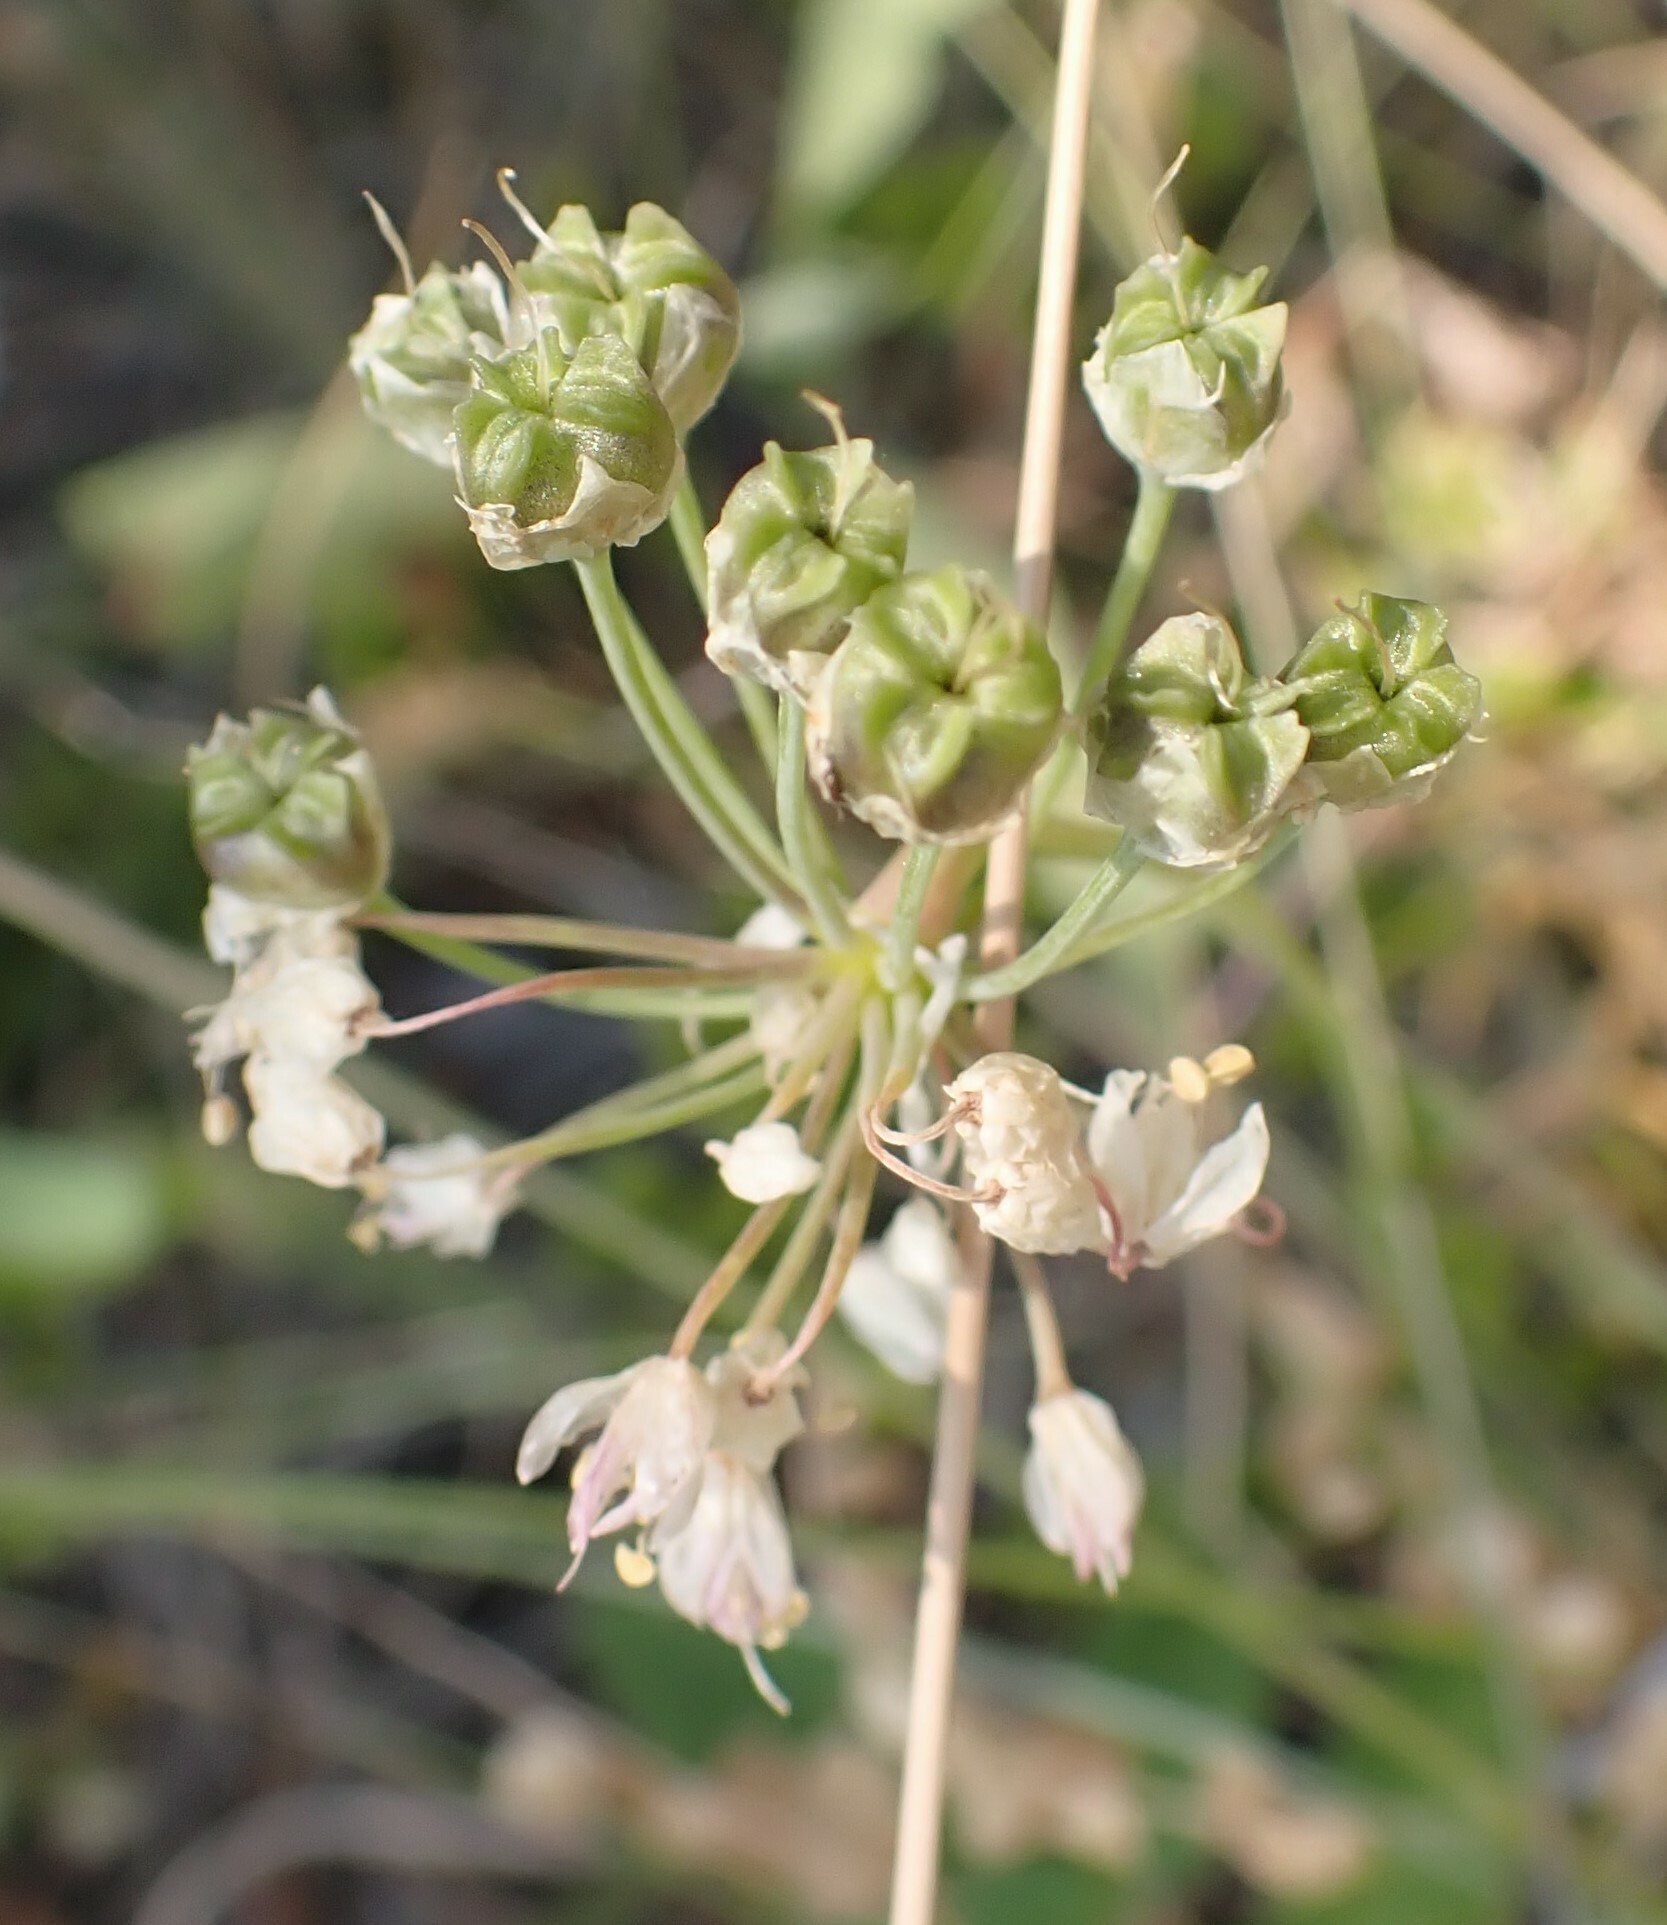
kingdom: Plantae
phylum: Tracheophyta
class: Liliopsida
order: Asparagales
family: Amaryllidaceae
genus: Allium
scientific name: Allium cernuum
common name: Nodding onion
